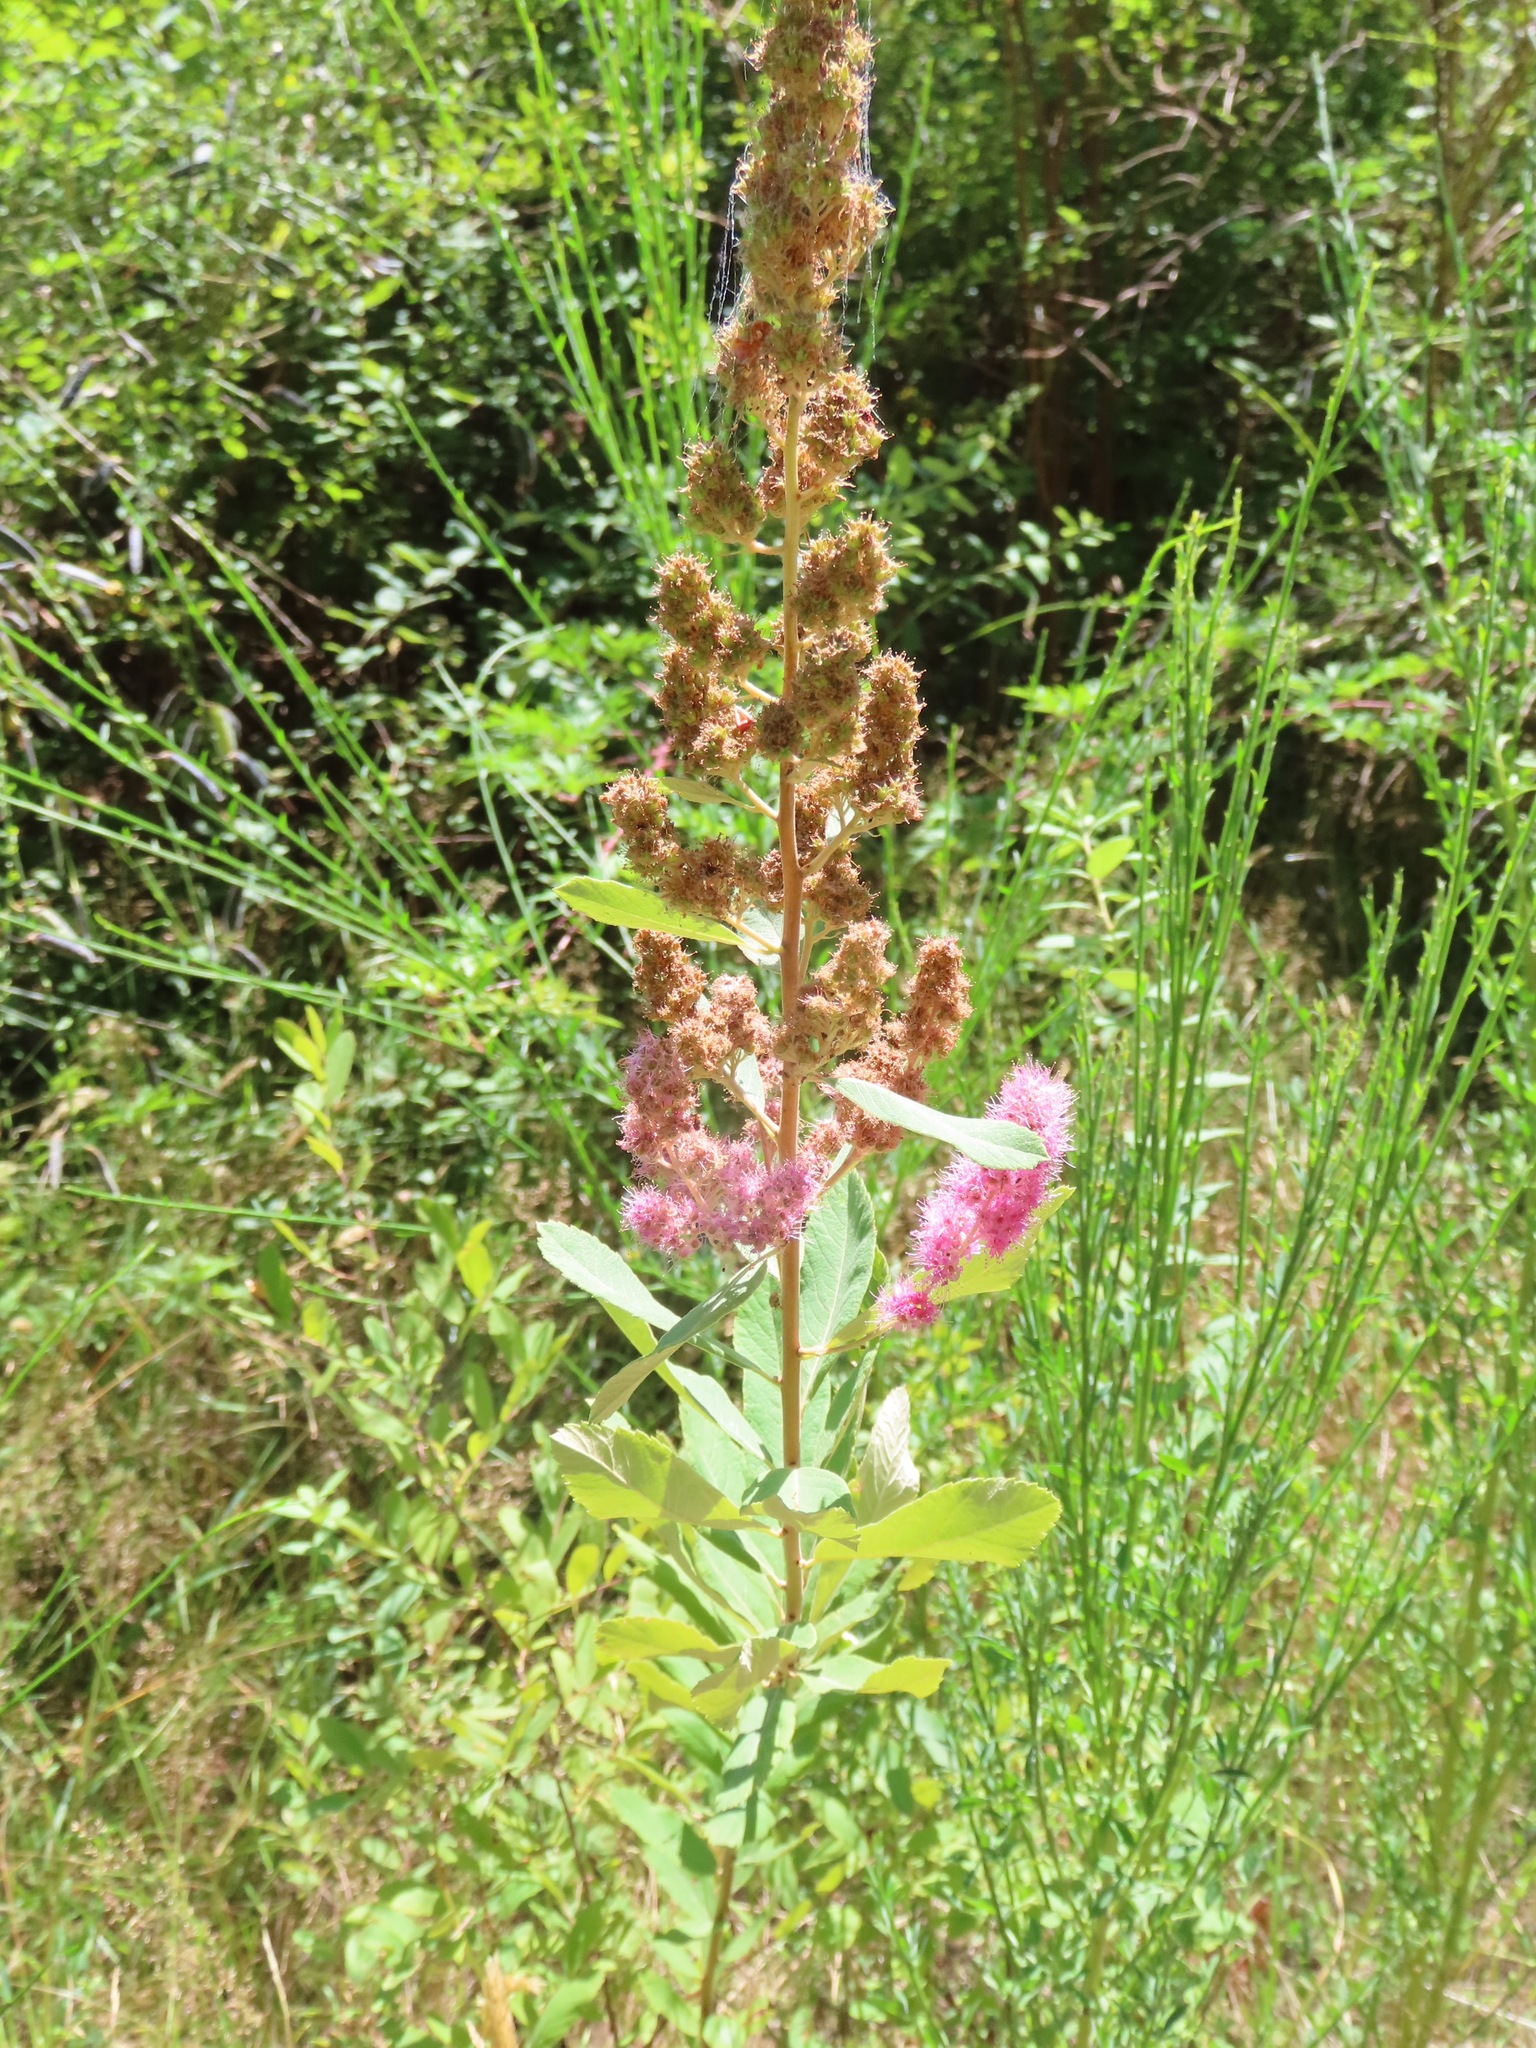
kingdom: Plantae
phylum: Tracheophyta
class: Magnoliopsida
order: Rosales
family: Rosaceae
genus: Spiraea
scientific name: Spiraea douglasii
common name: Steeplebush
